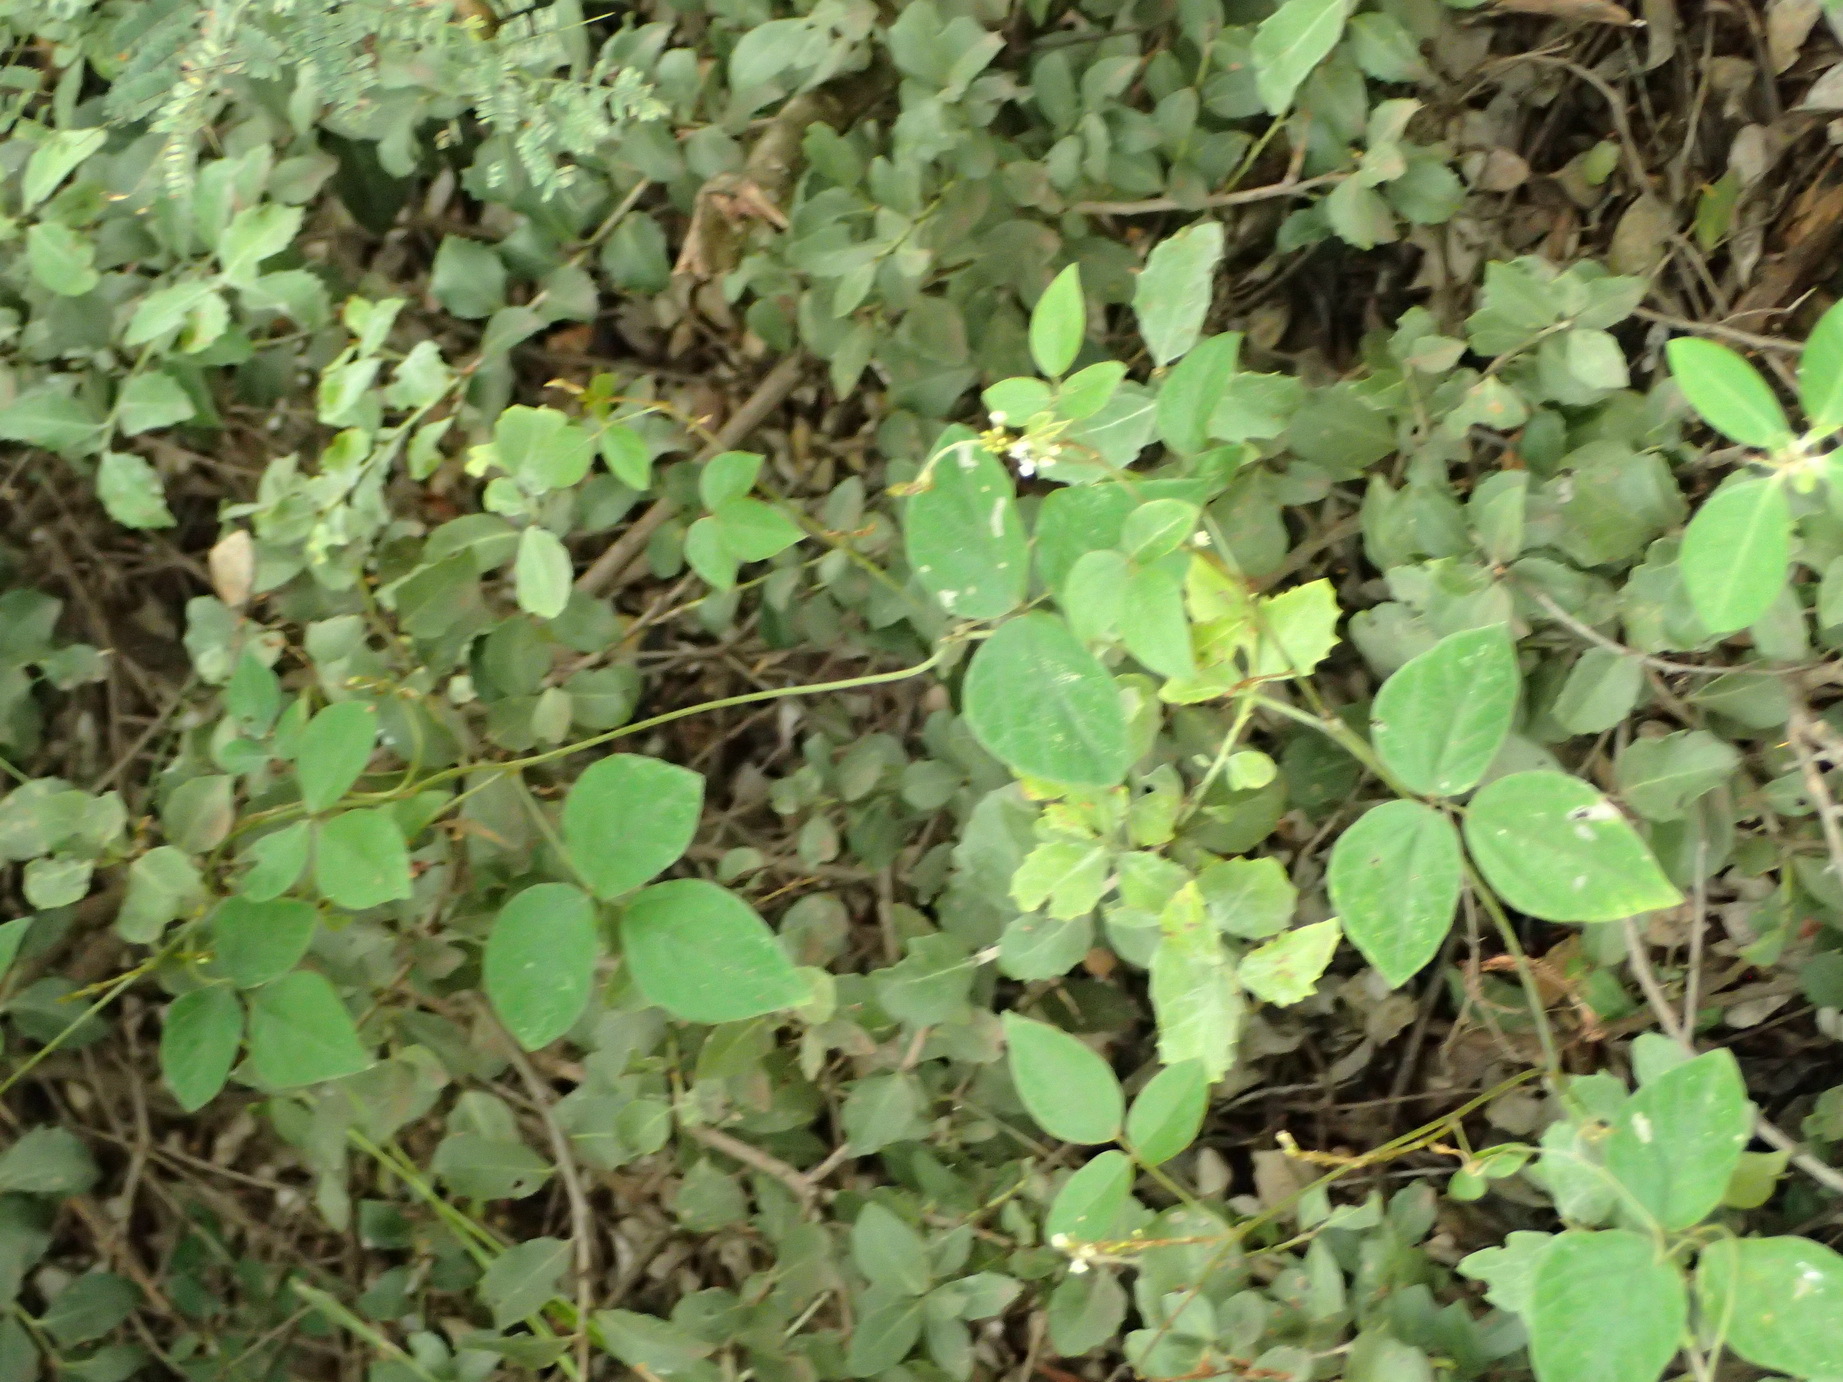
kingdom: Plantae
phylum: Tracheophyta
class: Magnoliopsida
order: Fabales
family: Fabaceae
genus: Neonotonia
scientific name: Neonotonia wightii
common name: Perennial soybean
